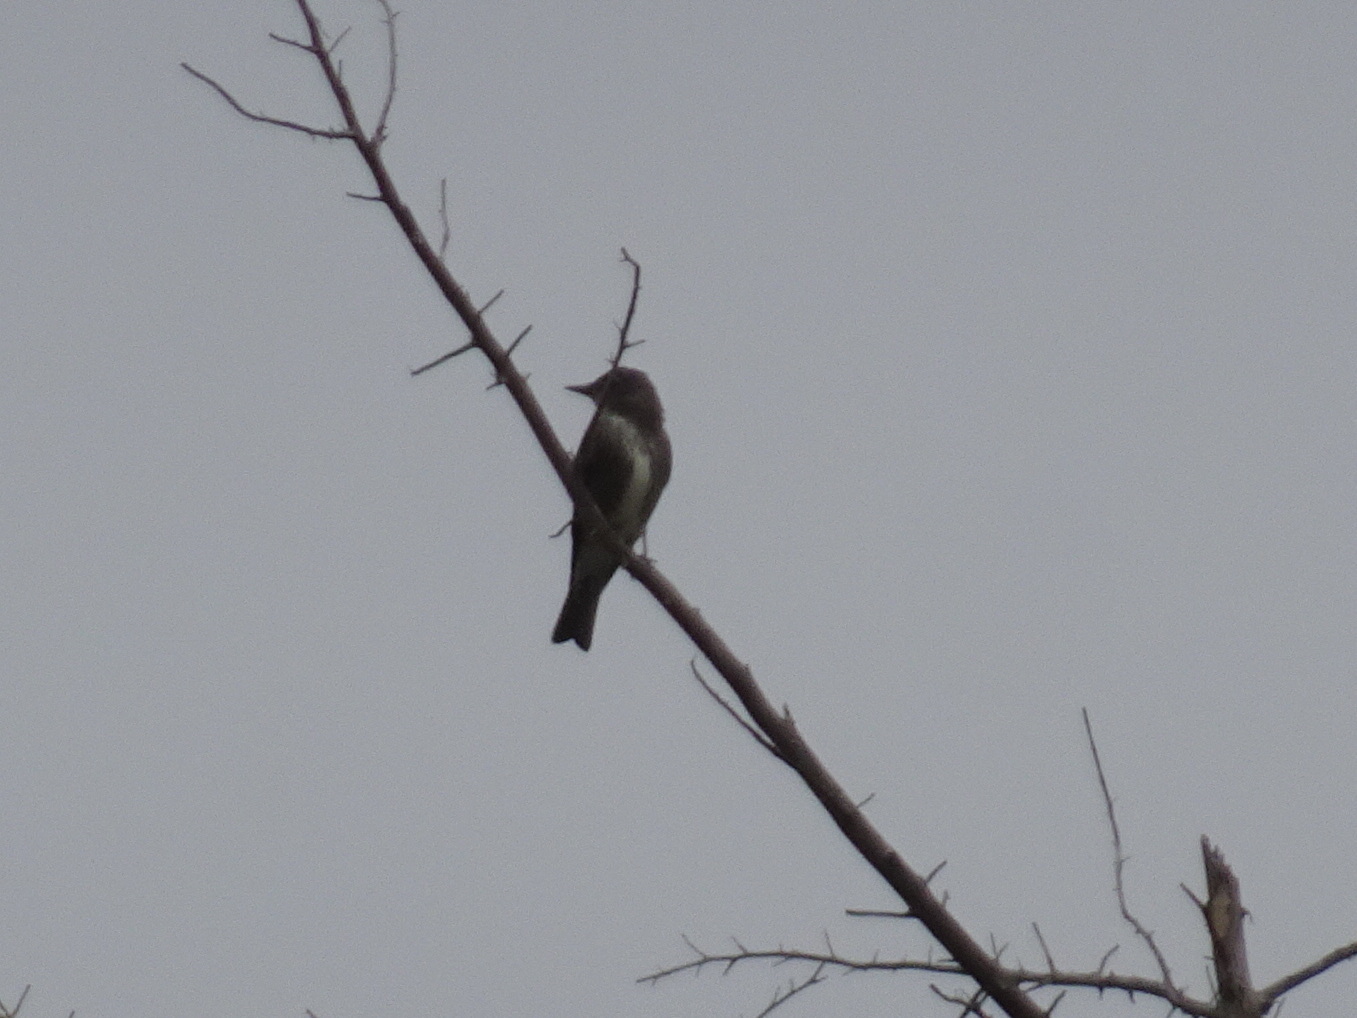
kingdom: Animalia
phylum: Chordata
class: Aves
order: Passeriformes
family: Tyrannidae
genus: Contopus
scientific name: Contopus cooperi
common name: Olive-sided flycatcher
